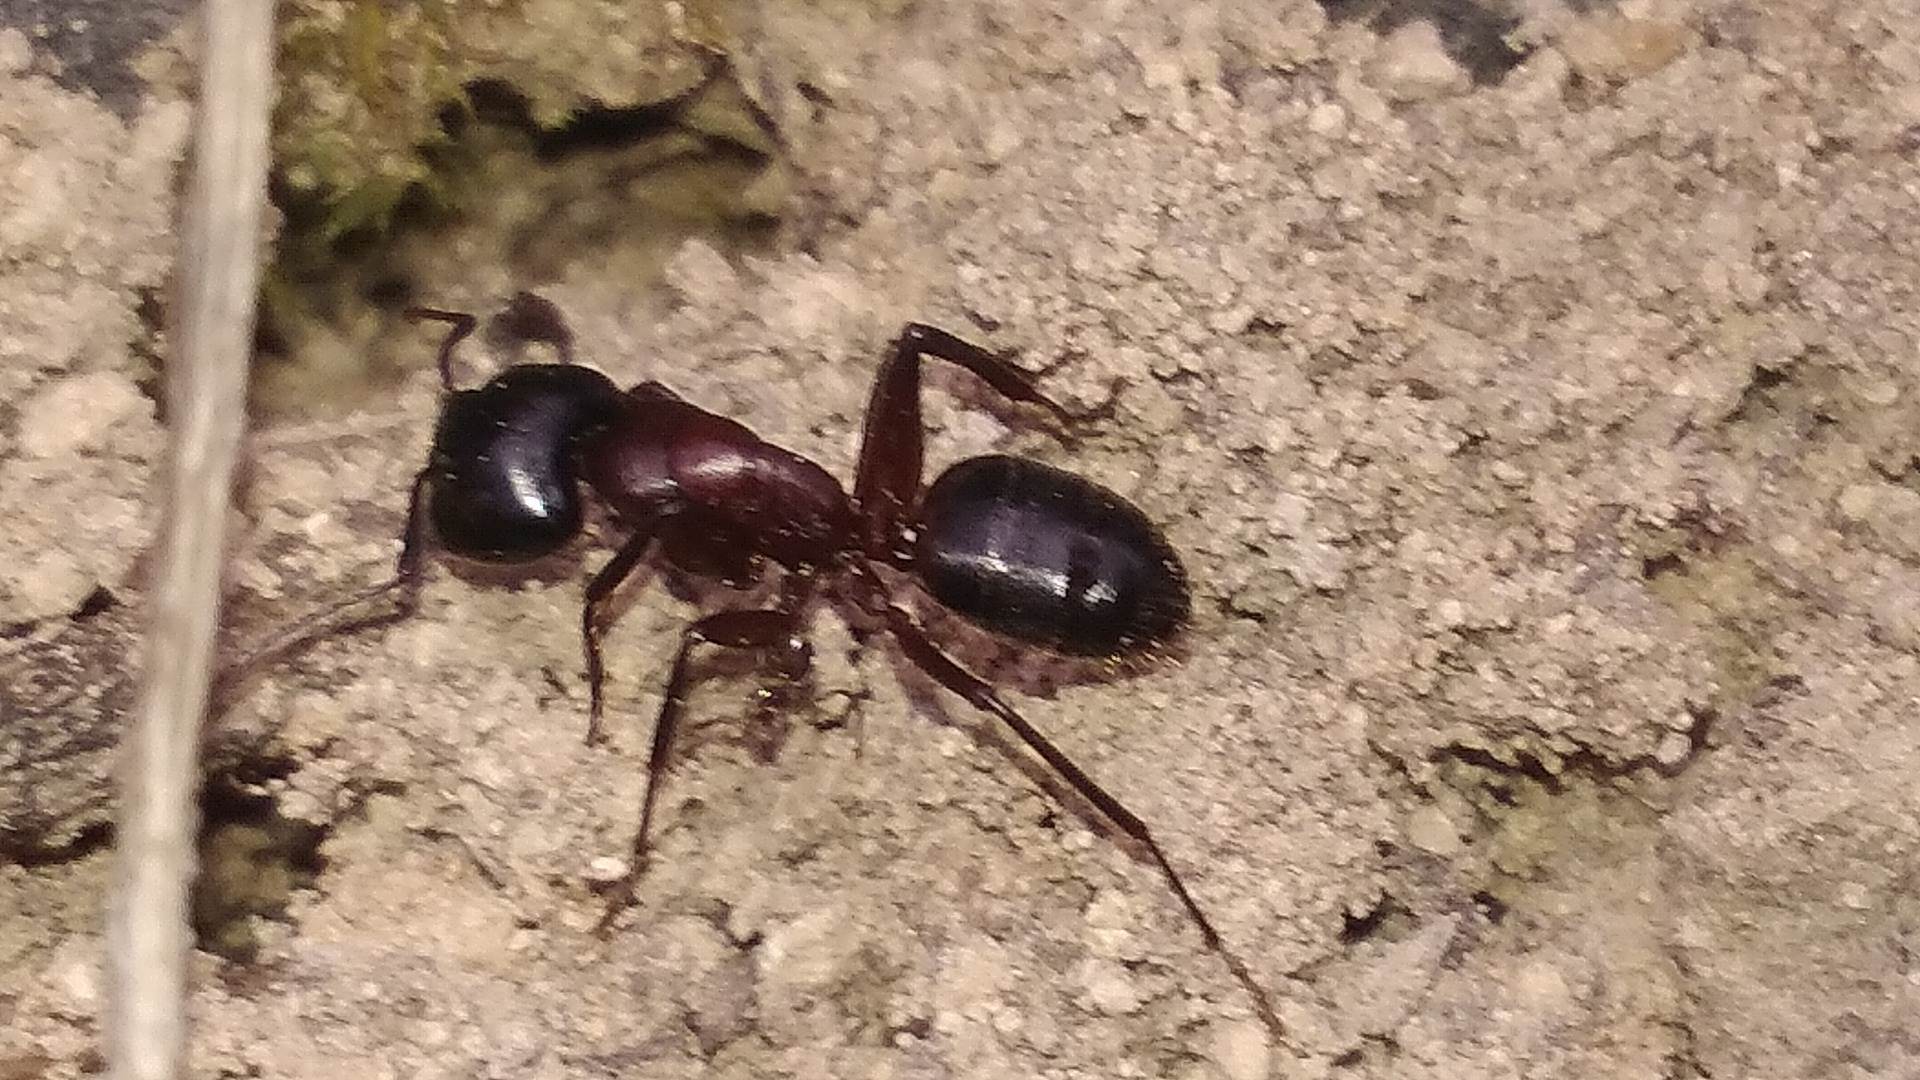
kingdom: Animalia
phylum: Arthropoda
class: Insecta
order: Hymenoptera
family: Formicidae
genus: Camponotus
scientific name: Camponotus ligniperdus
